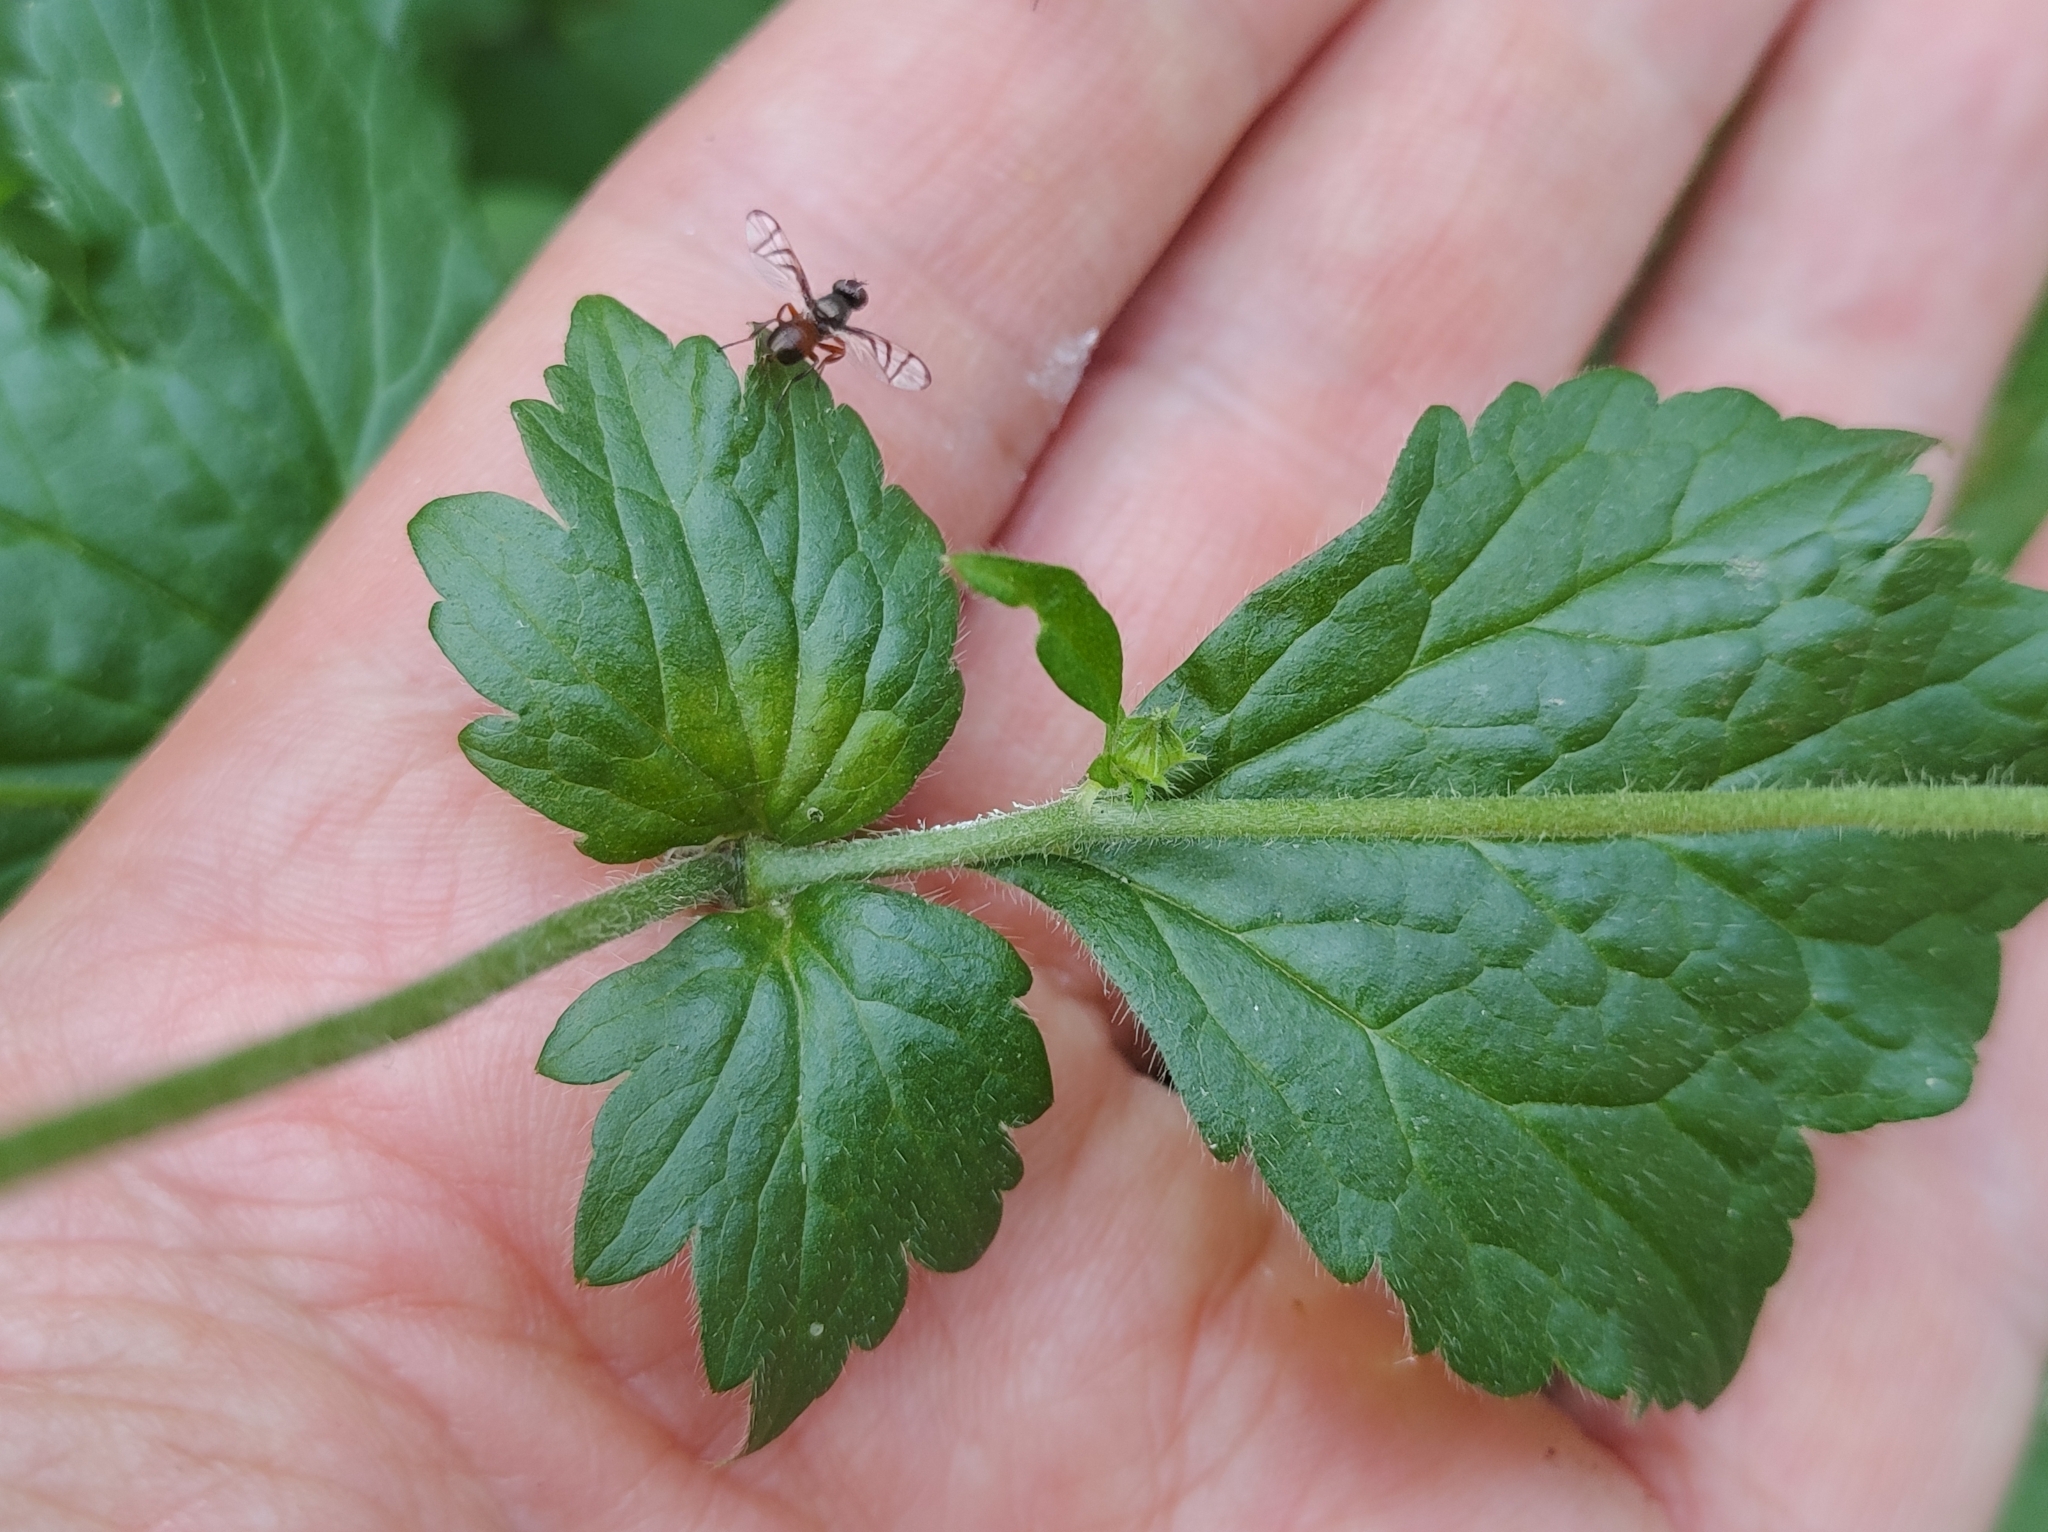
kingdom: Plantae
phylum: Tracheophyta
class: Magnoliopsida
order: Rosales
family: Rosaceae
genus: Geum
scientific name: Geum urbanum
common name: Wood avens
